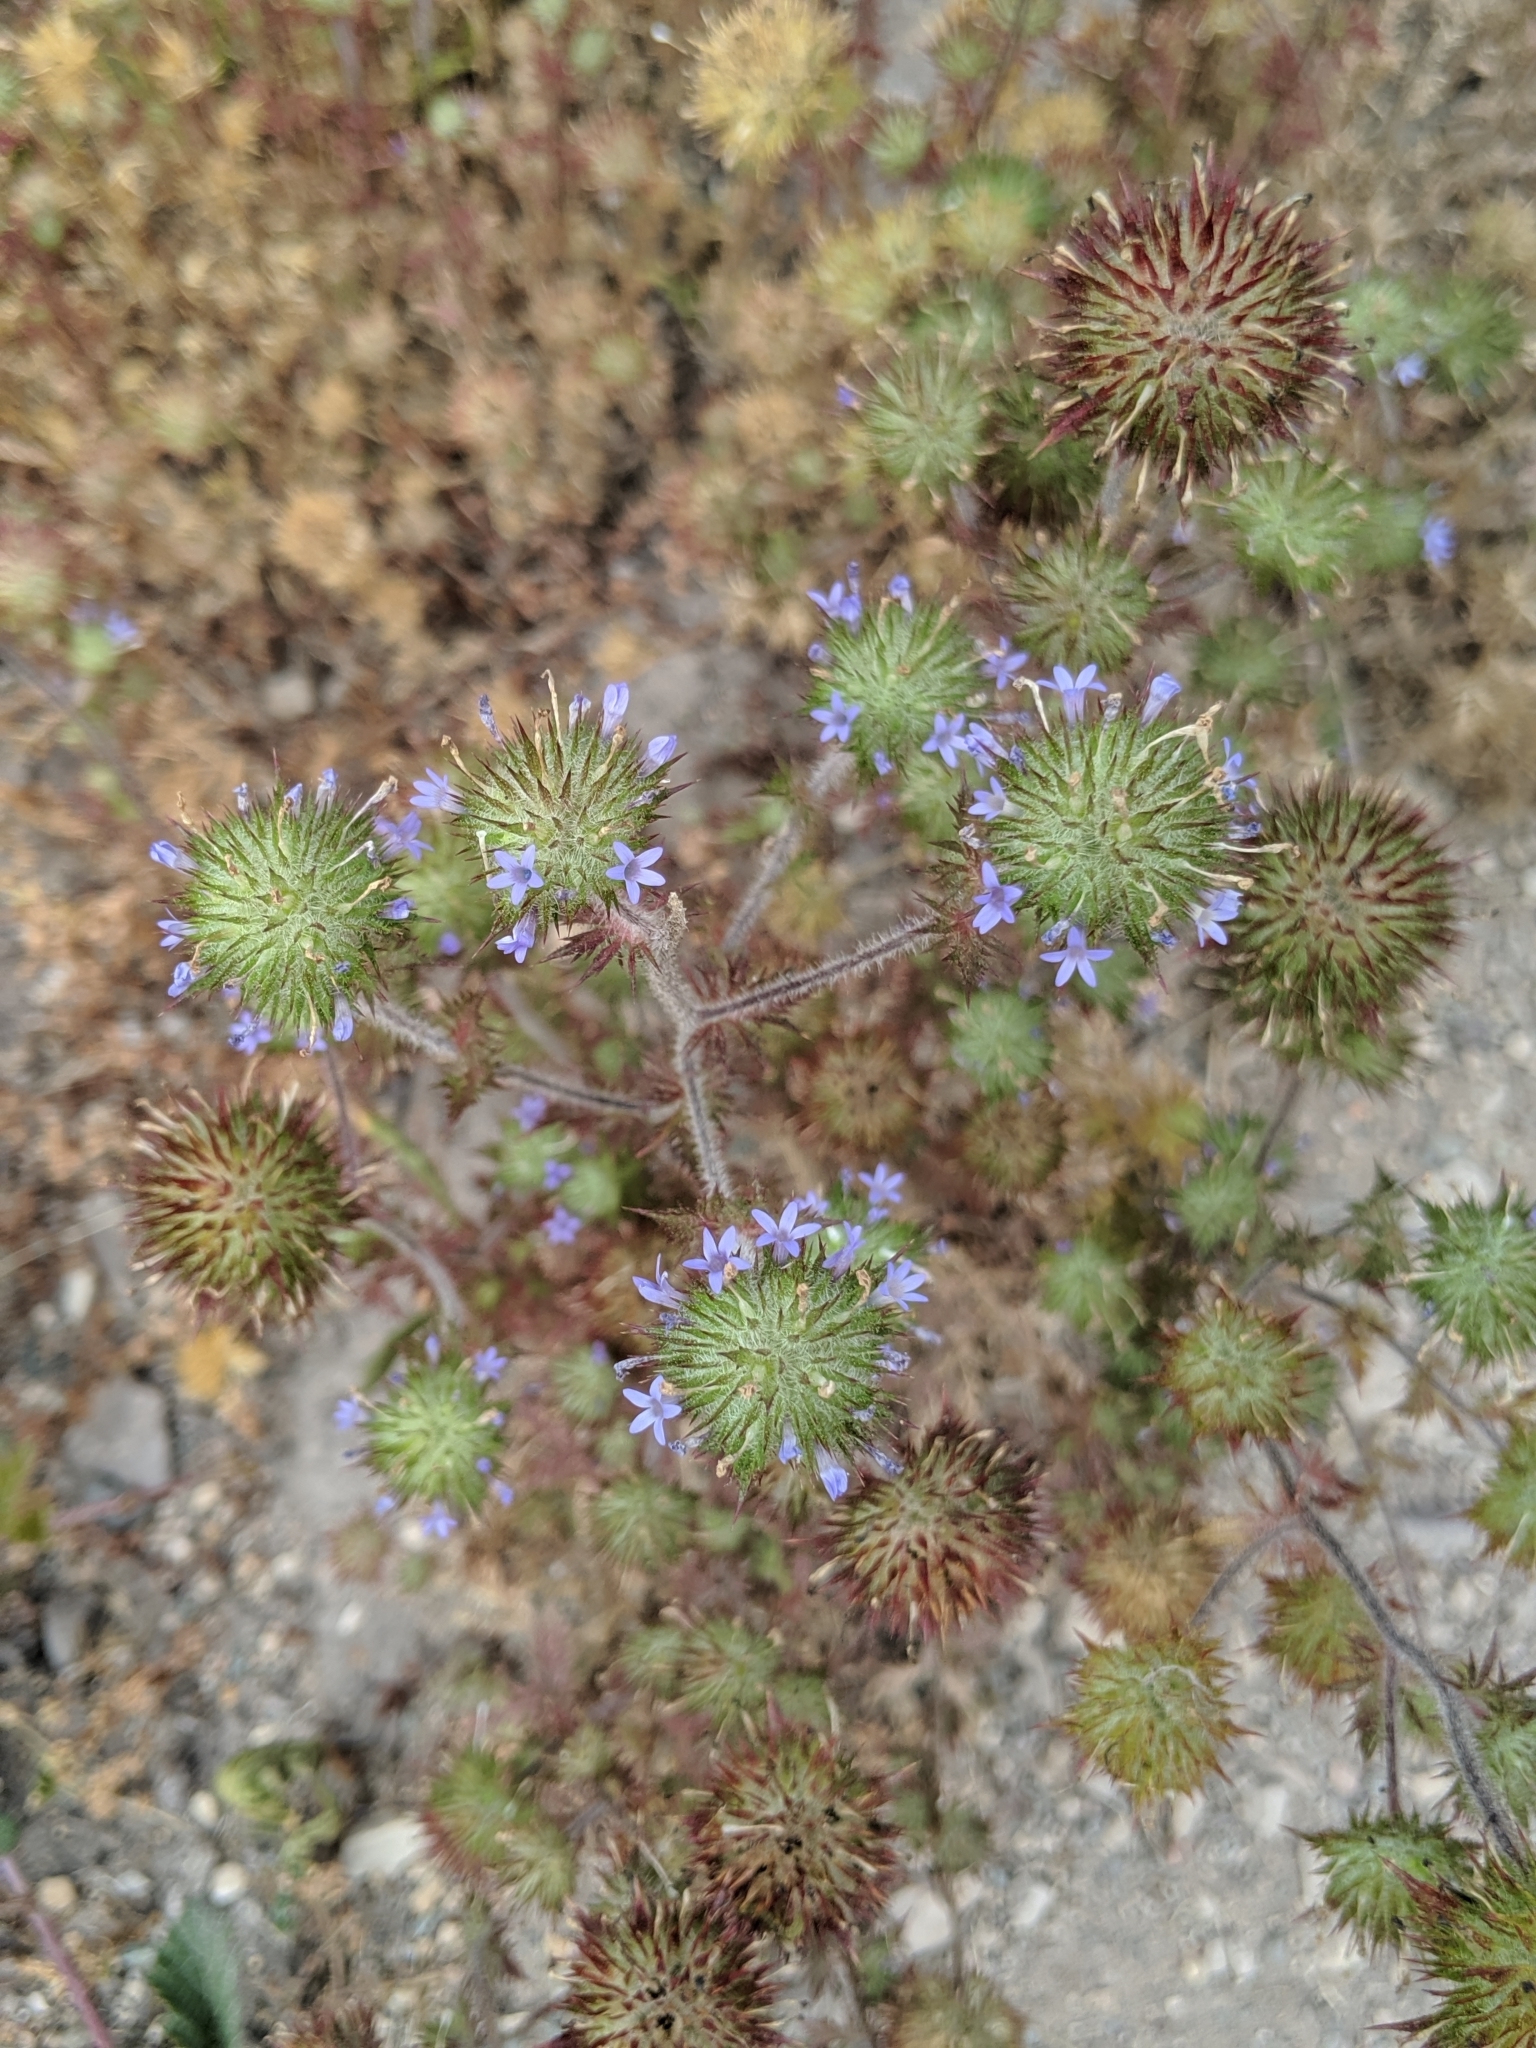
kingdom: Plantae
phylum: Tracheophyta
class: Magnoliopsida
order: Ericales
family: Polemoniaceae
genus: Navarretia
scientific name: Navarretia squarrosa
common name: Skunkweed
